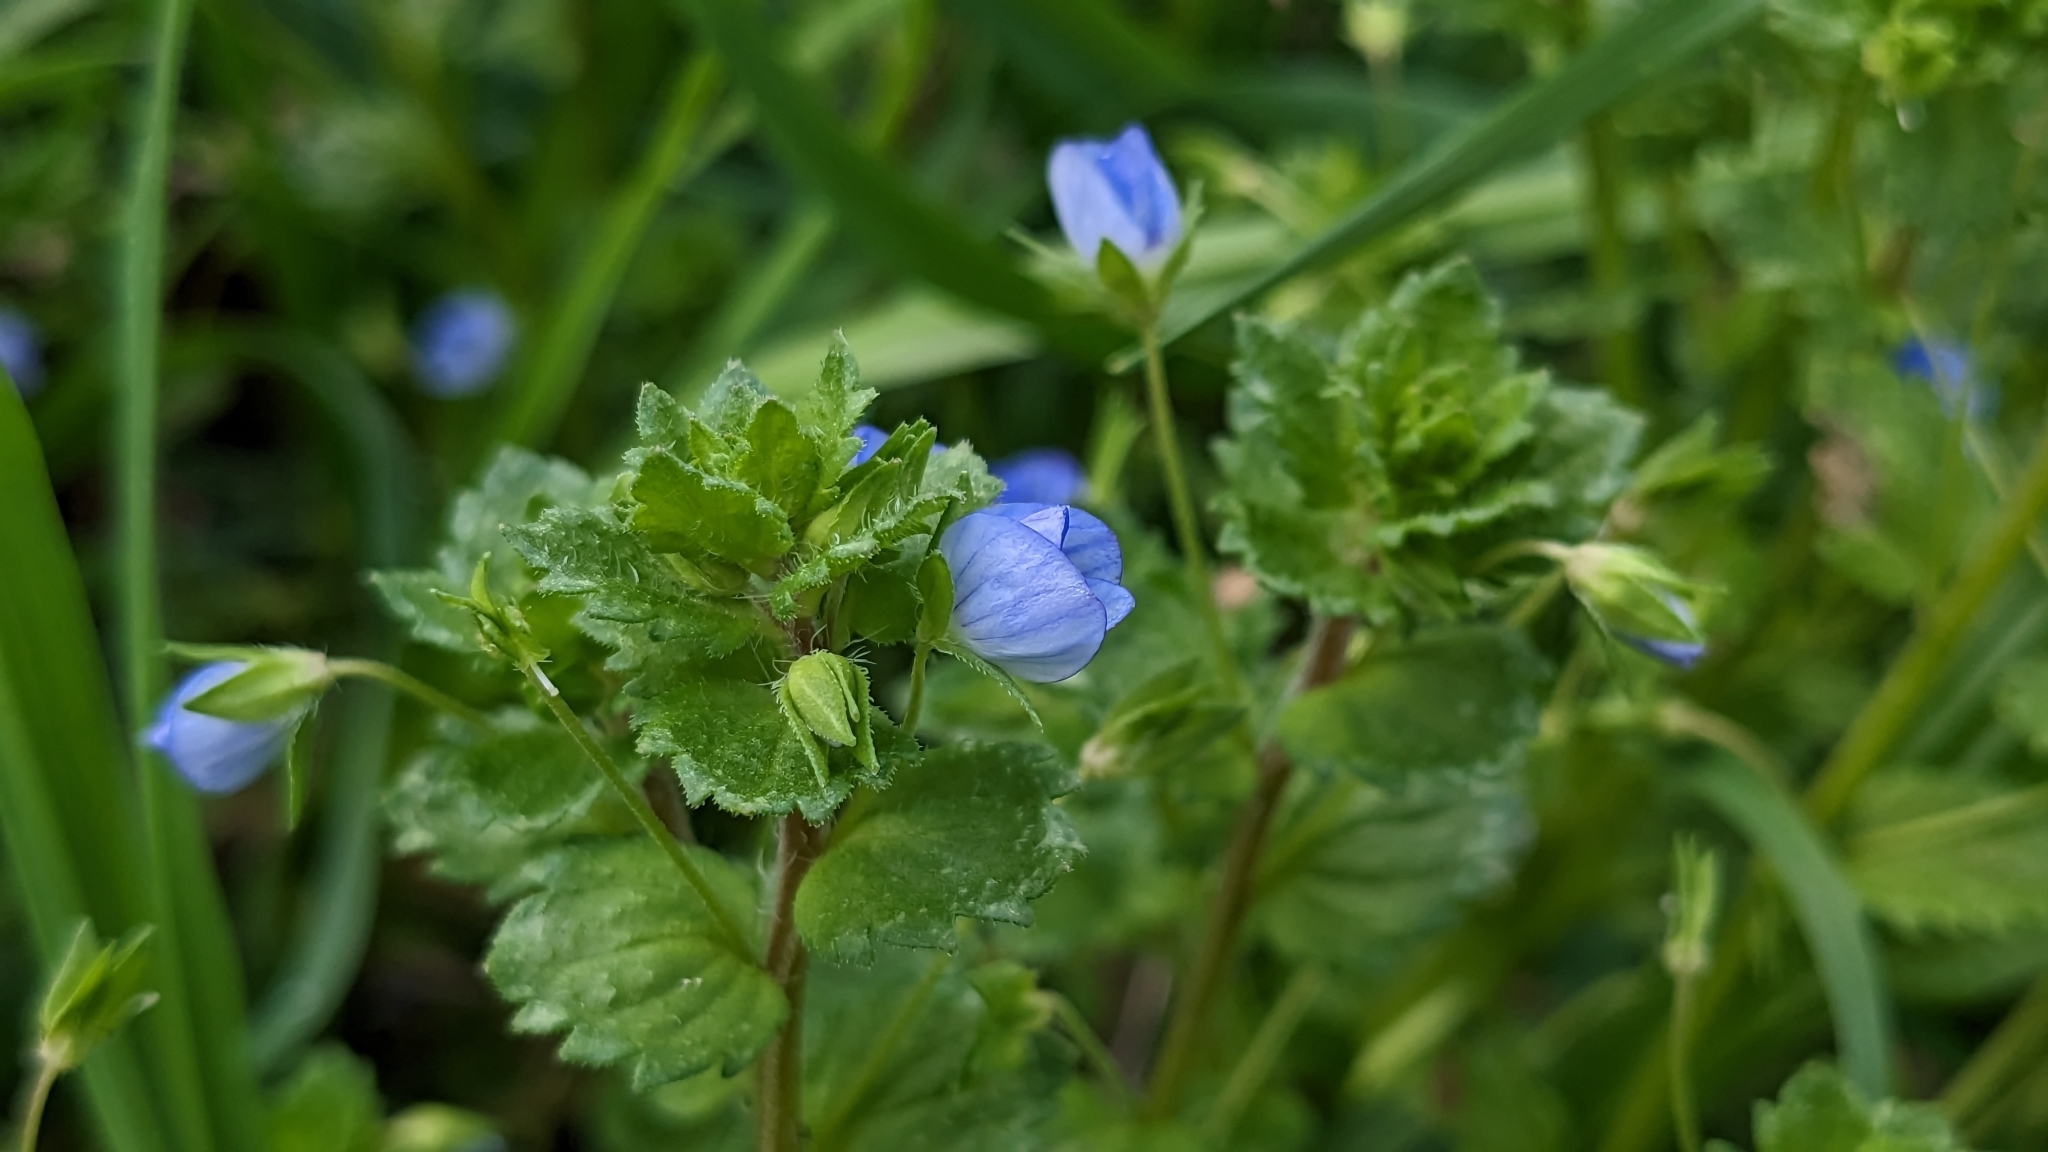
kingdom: Plantae
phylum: Tracheophyta
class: Magnoliopsida
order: Lamiales
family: Plantaginaceae
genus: Veronica
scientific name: Veronica persica
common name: Common field-speedwell
